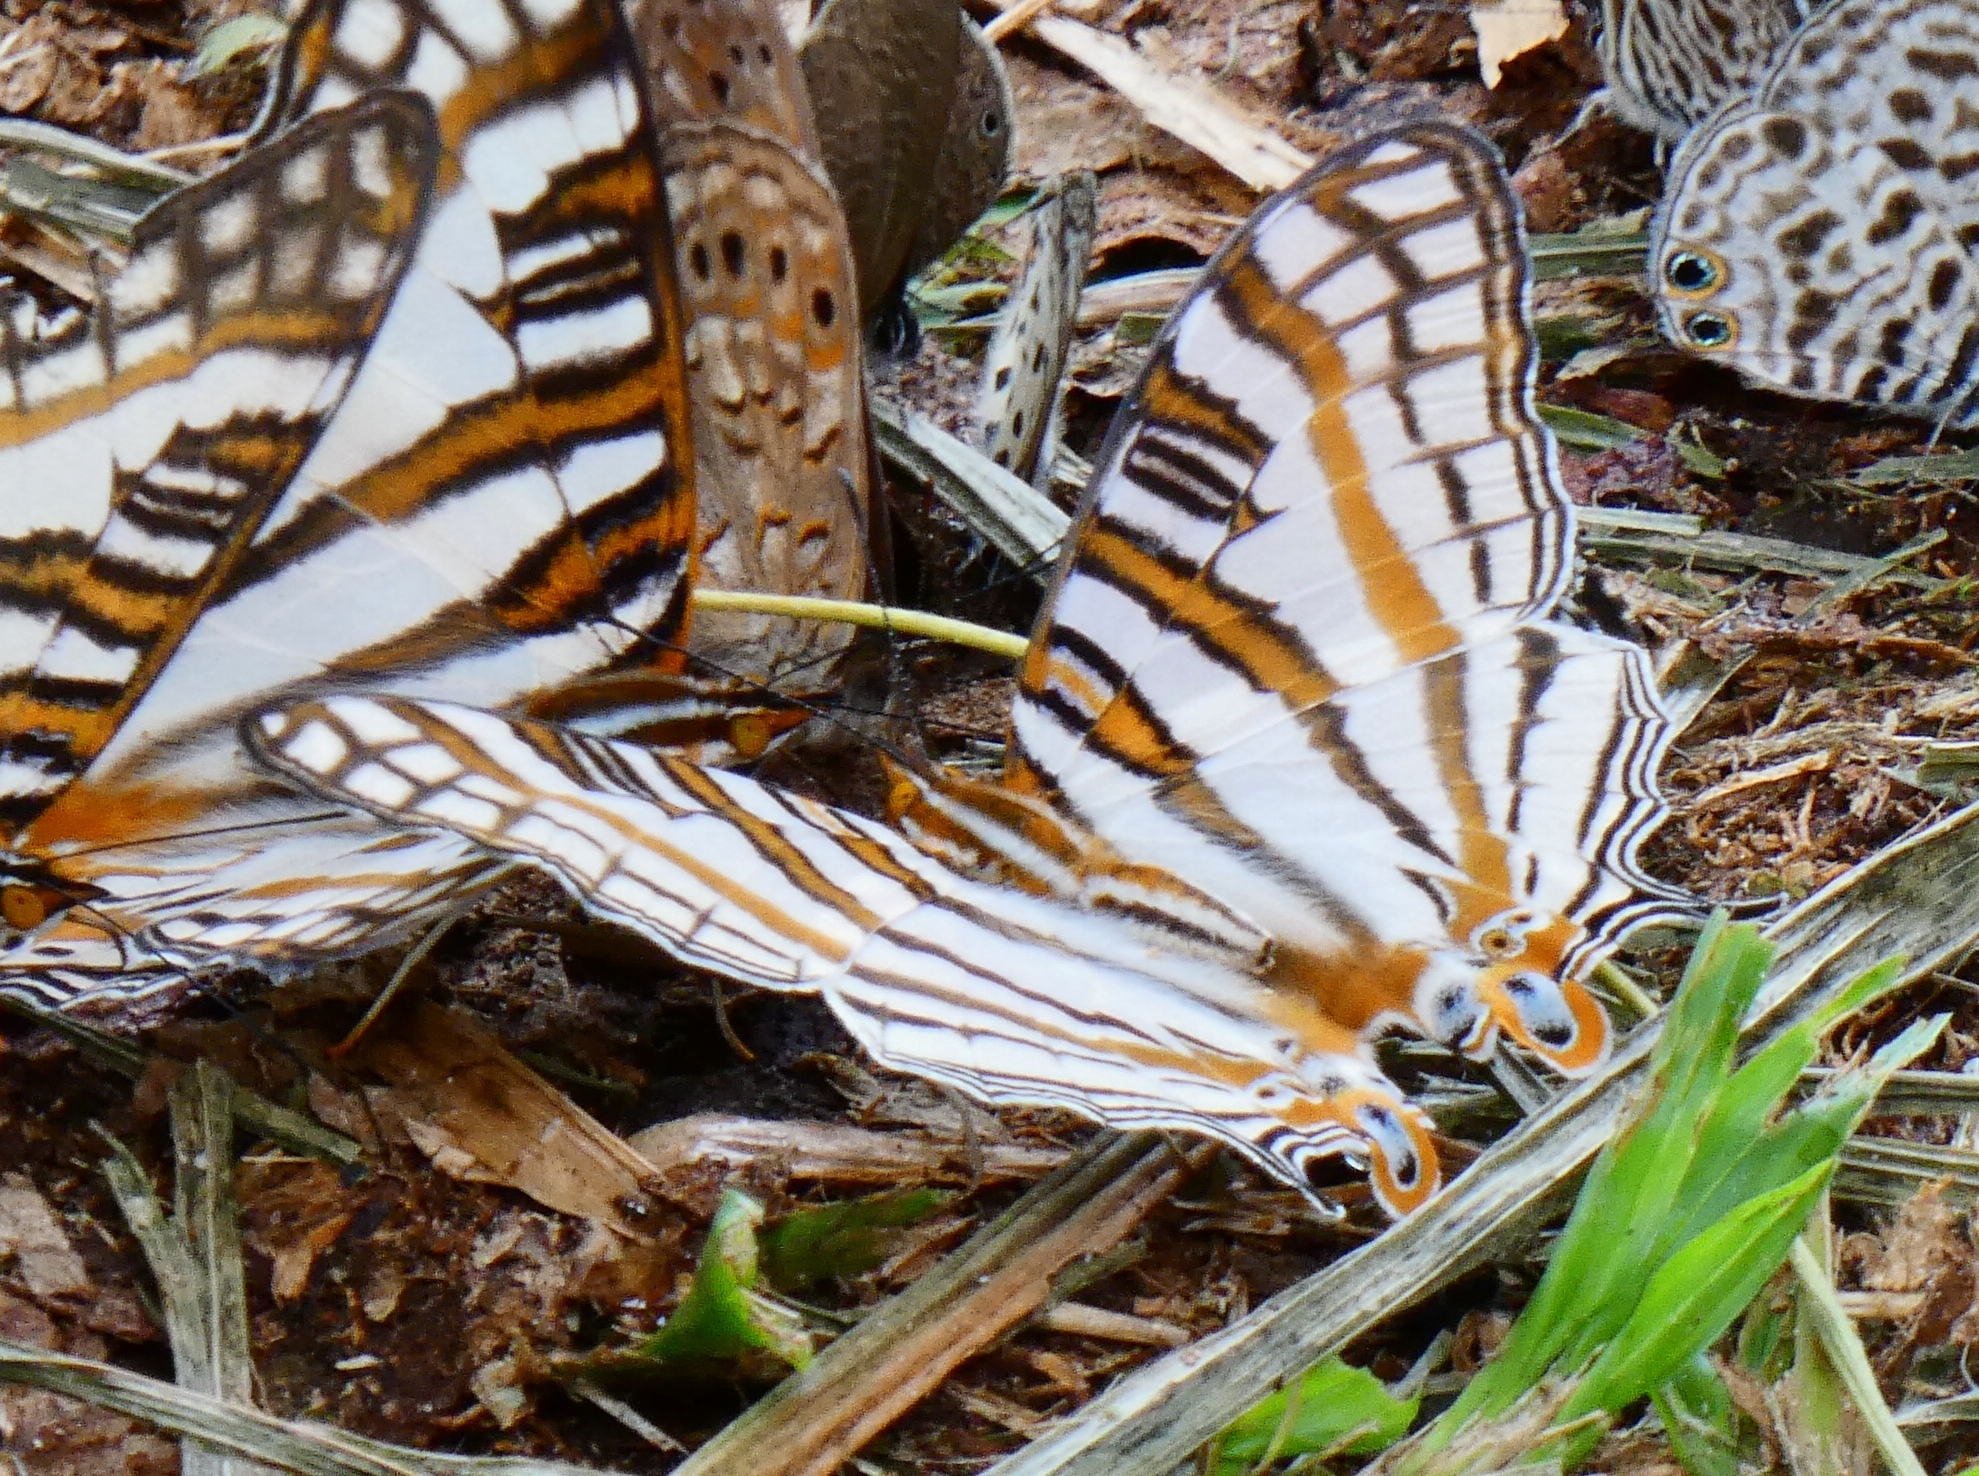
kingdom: Animalia
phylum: Arthropoda
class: Insecta
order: Lepidoptera
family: Nymphalidae
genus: Marpesia
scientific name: Marpesia camillus
